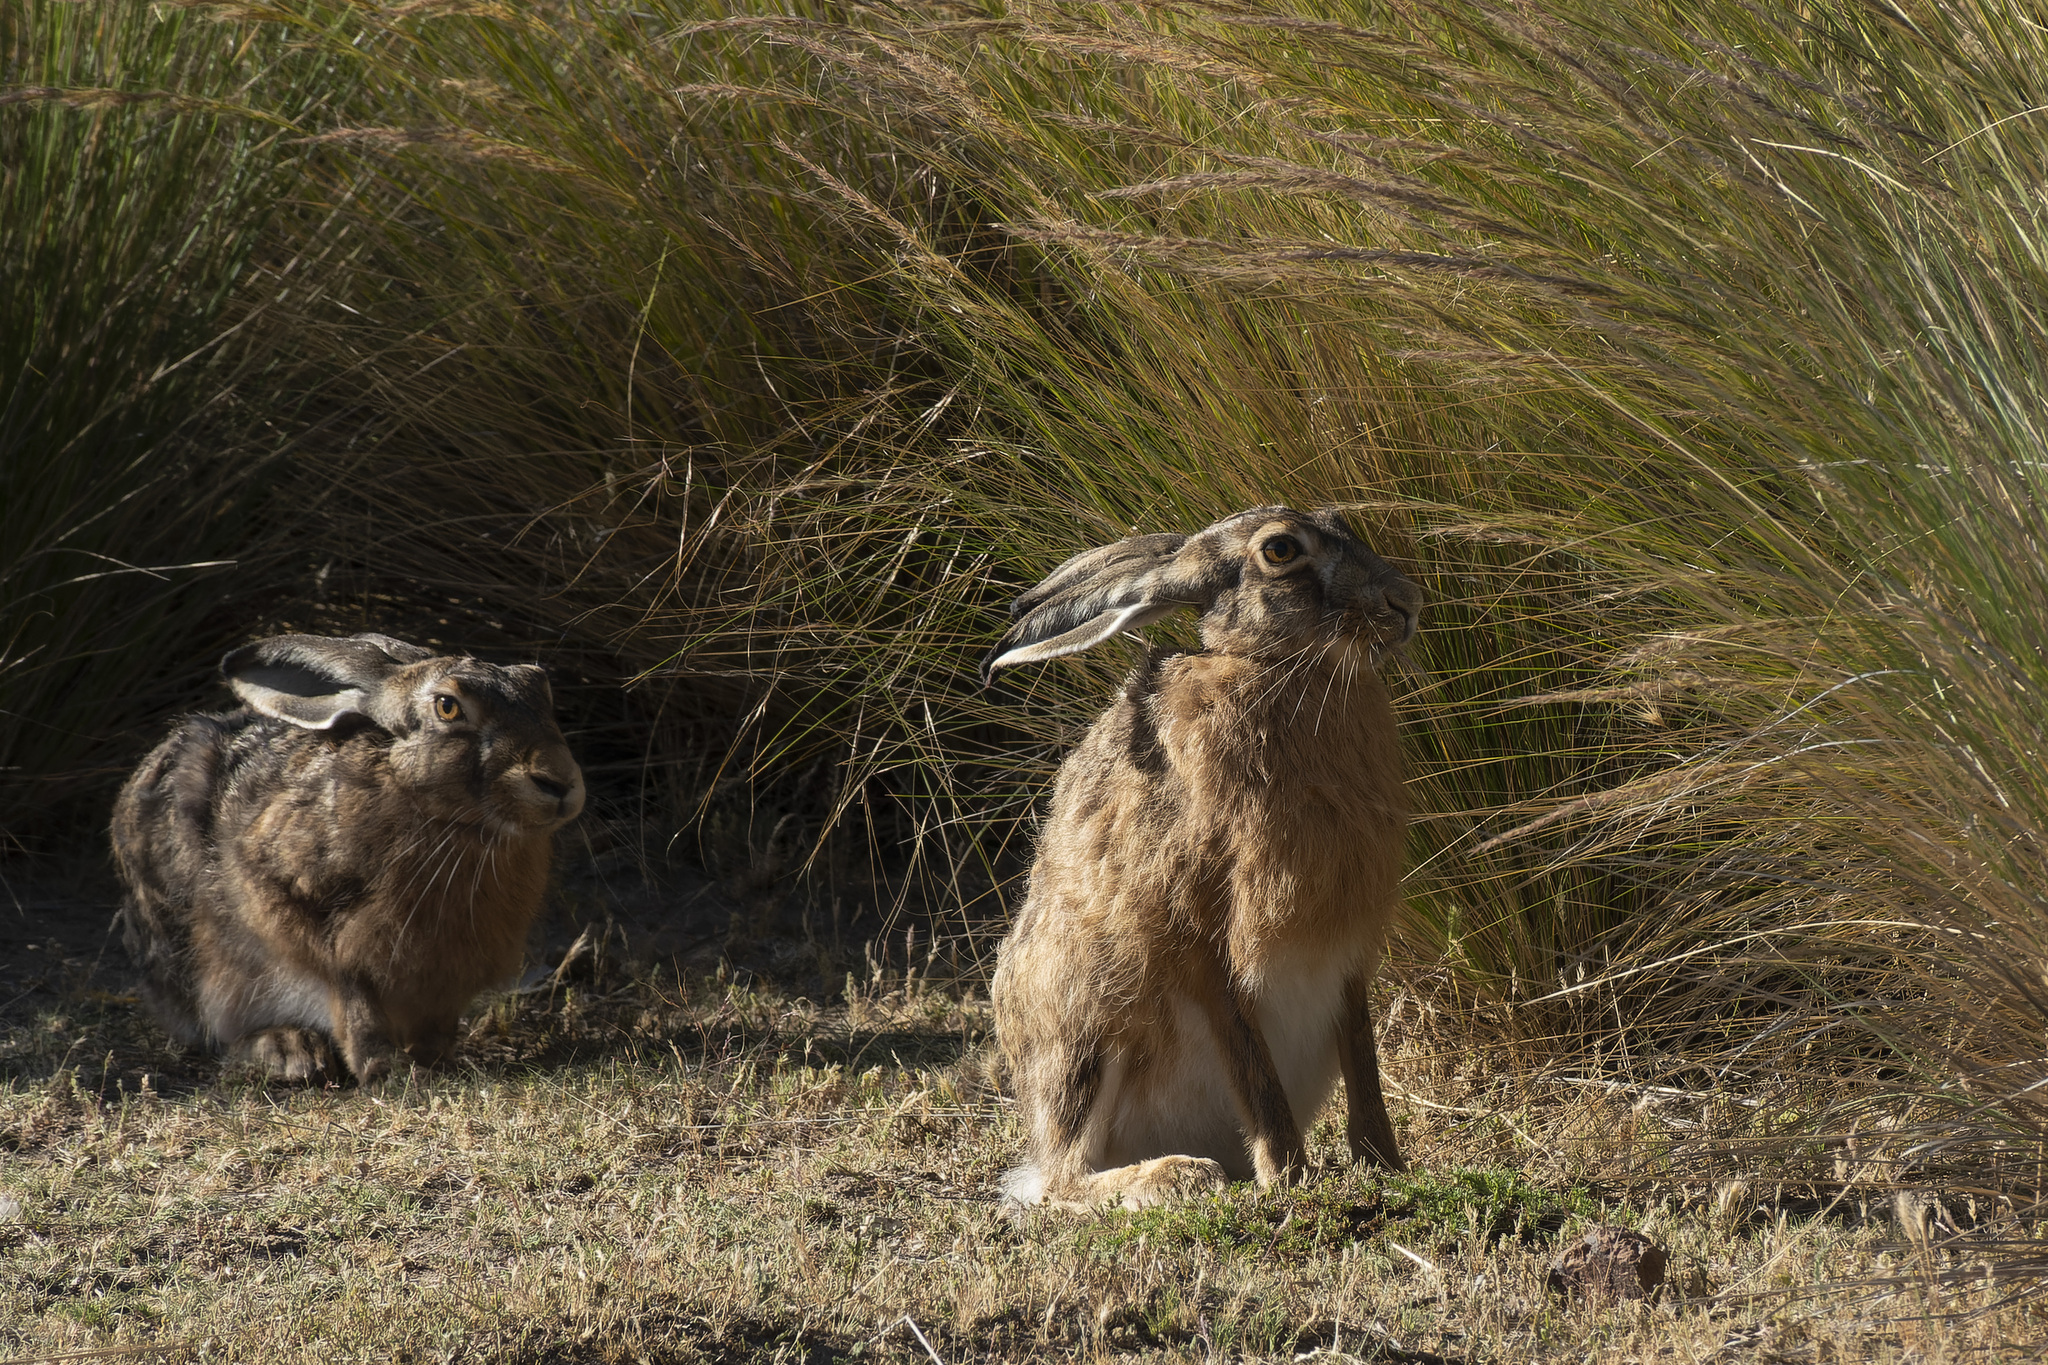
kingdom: Animalia
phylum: Chordata
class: Mammalia
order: Lagomorpha
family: Leporidae
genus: Lepus
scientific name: Lepus europaeus
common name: European hare
